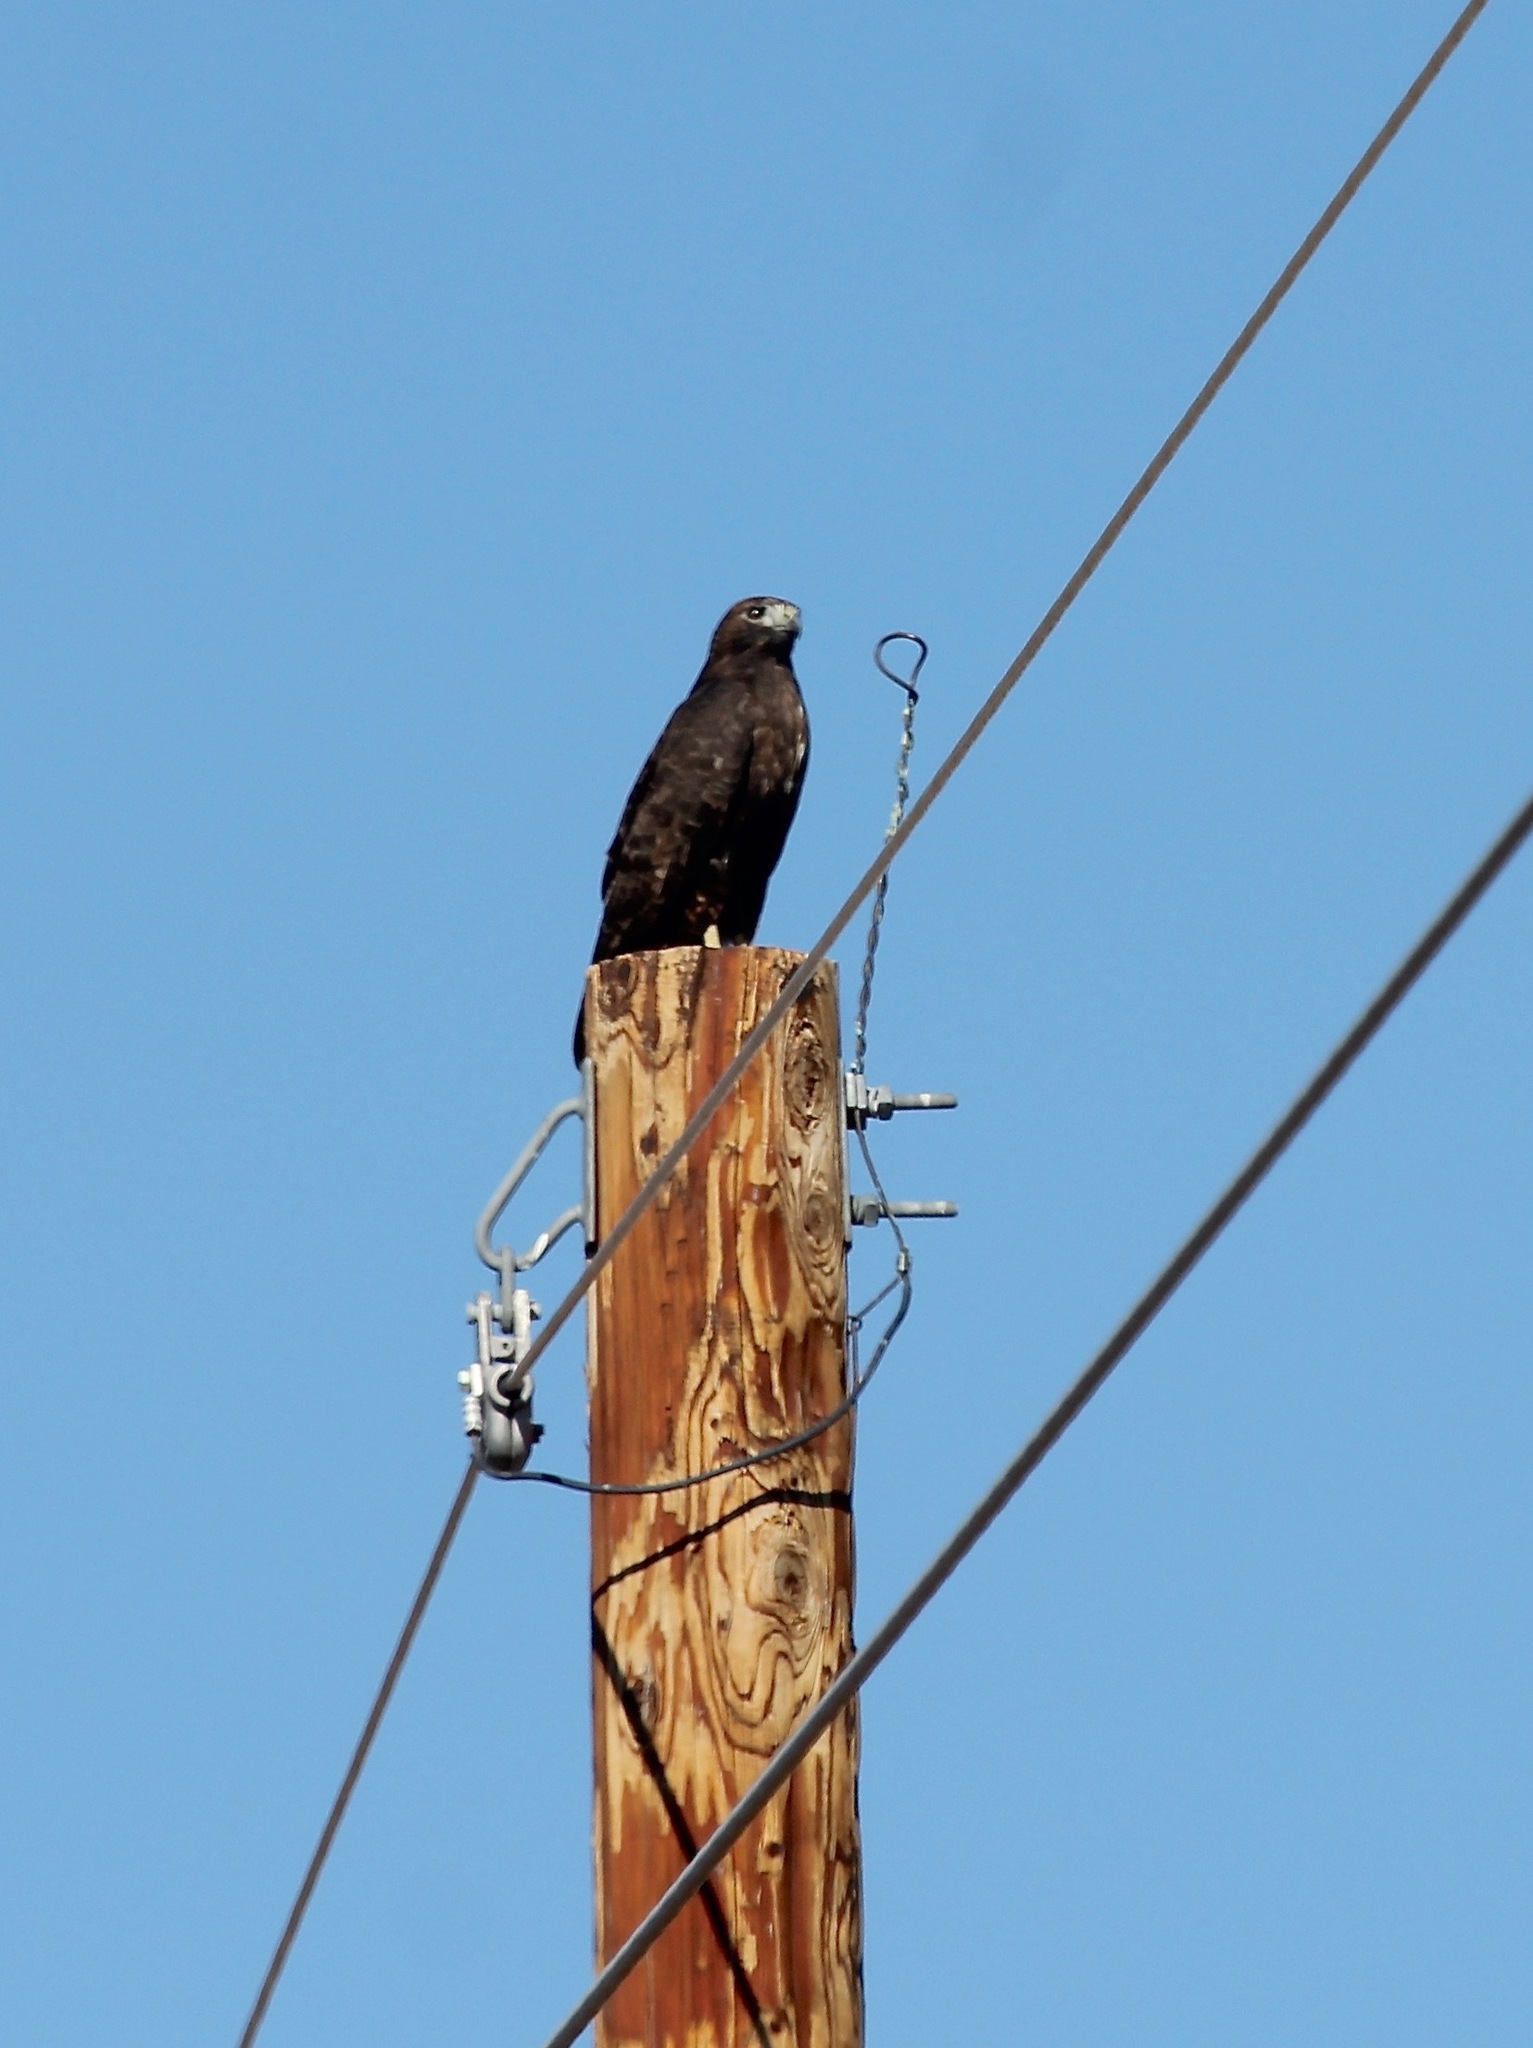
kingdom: Animalia
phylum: Chordata
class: Aves
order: Accipitriformes
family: Accipitridae
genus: Buteo
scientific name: Buteo jamaicensis
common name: Red-tailed hawk
